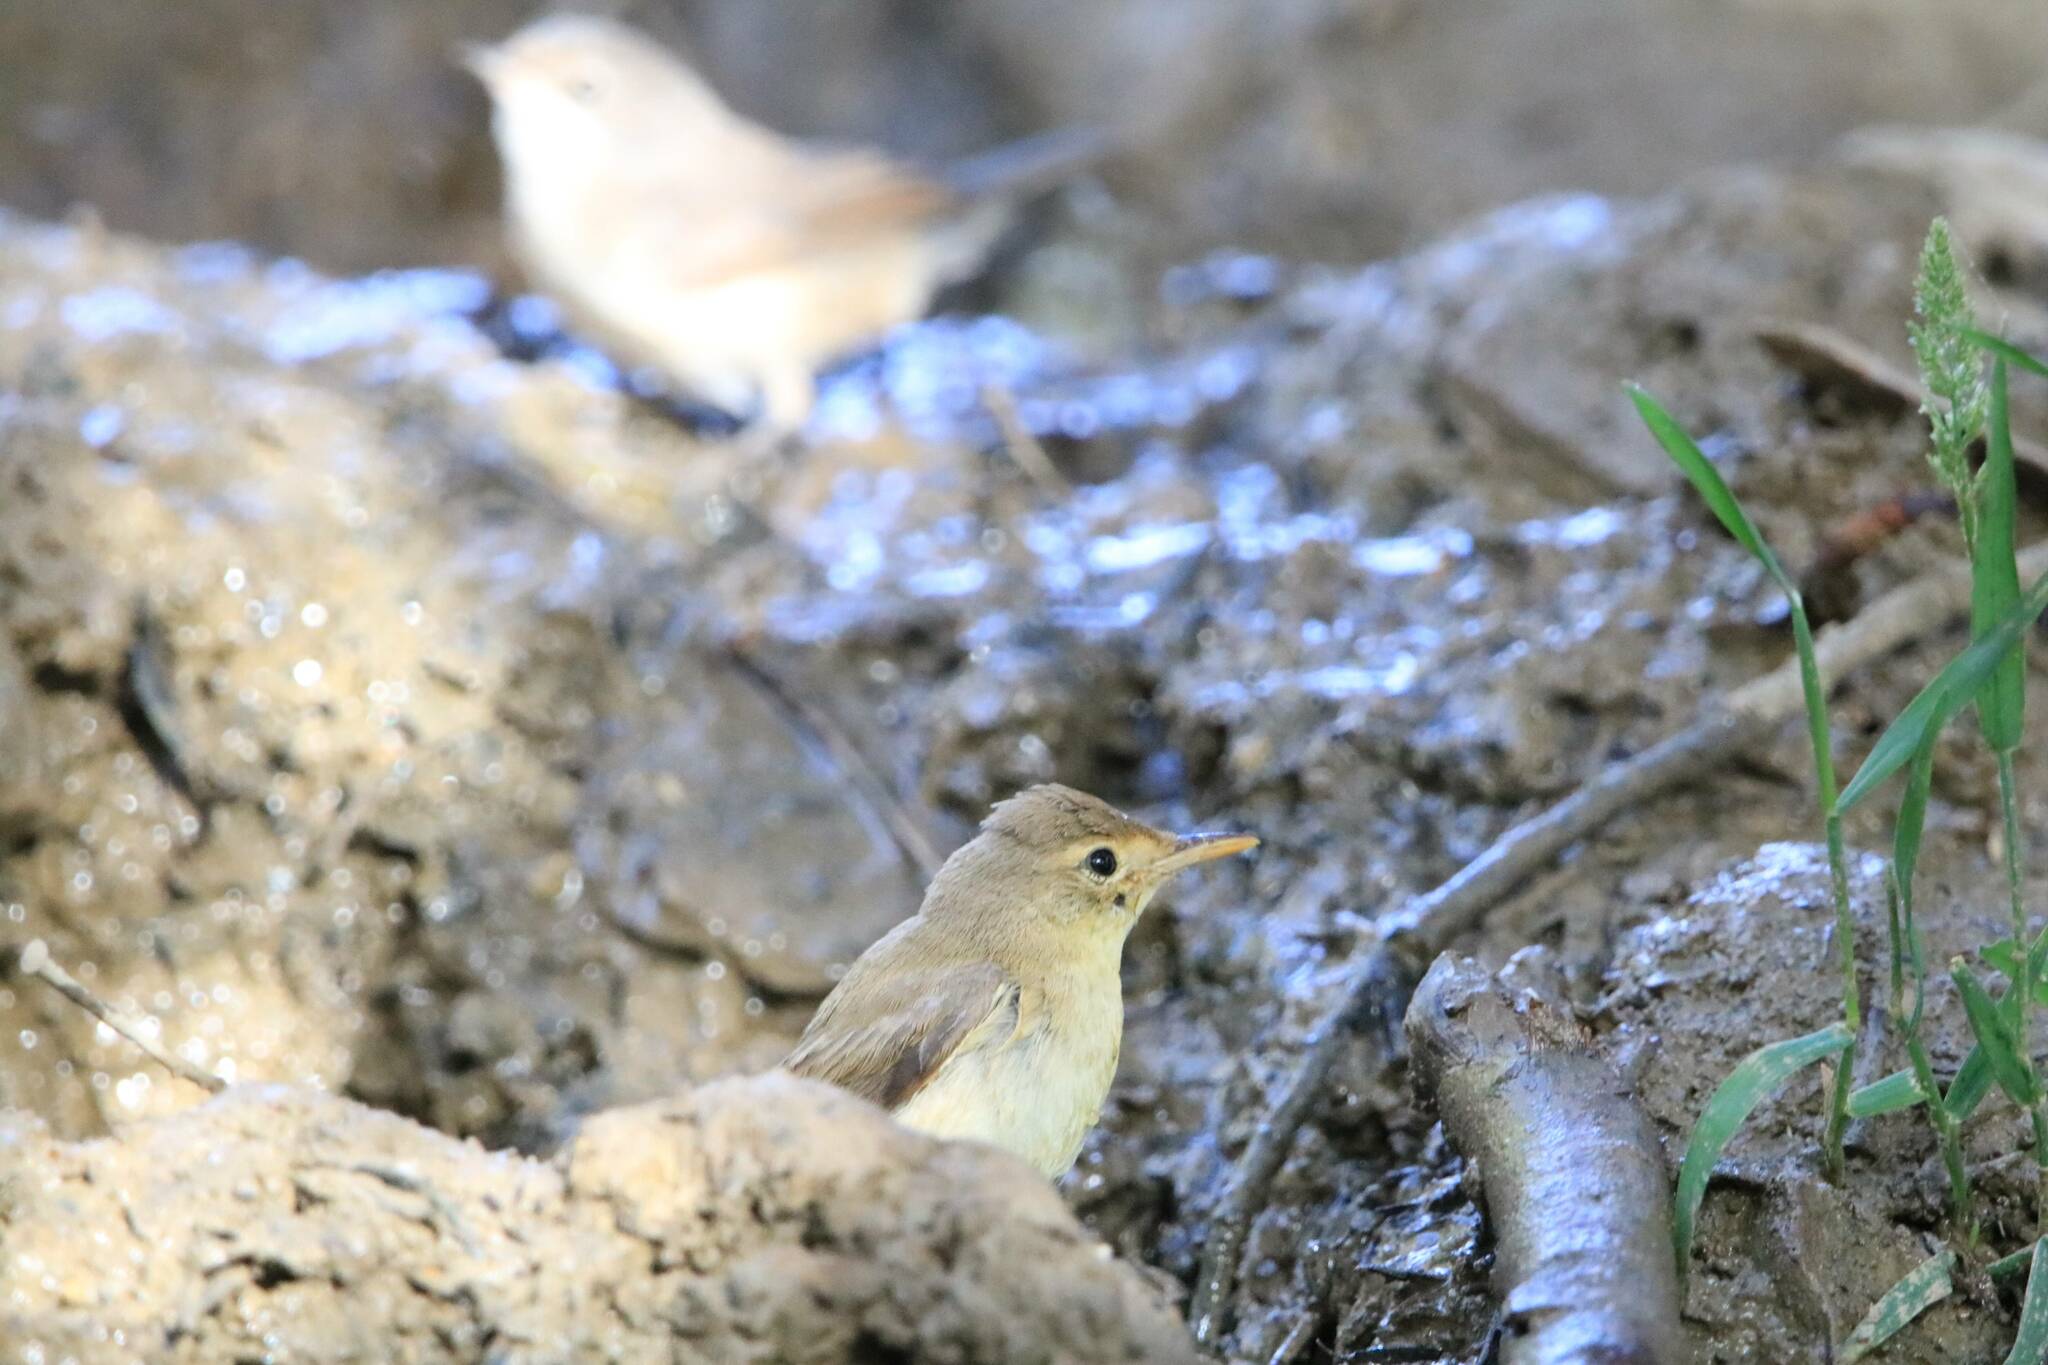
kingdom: Animalia
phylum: Chordata
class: Aves
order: Passeriformes
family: Acrocephalidae
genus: Hippolais
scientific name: Hippolais polyglotta
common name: Melodious warbler
